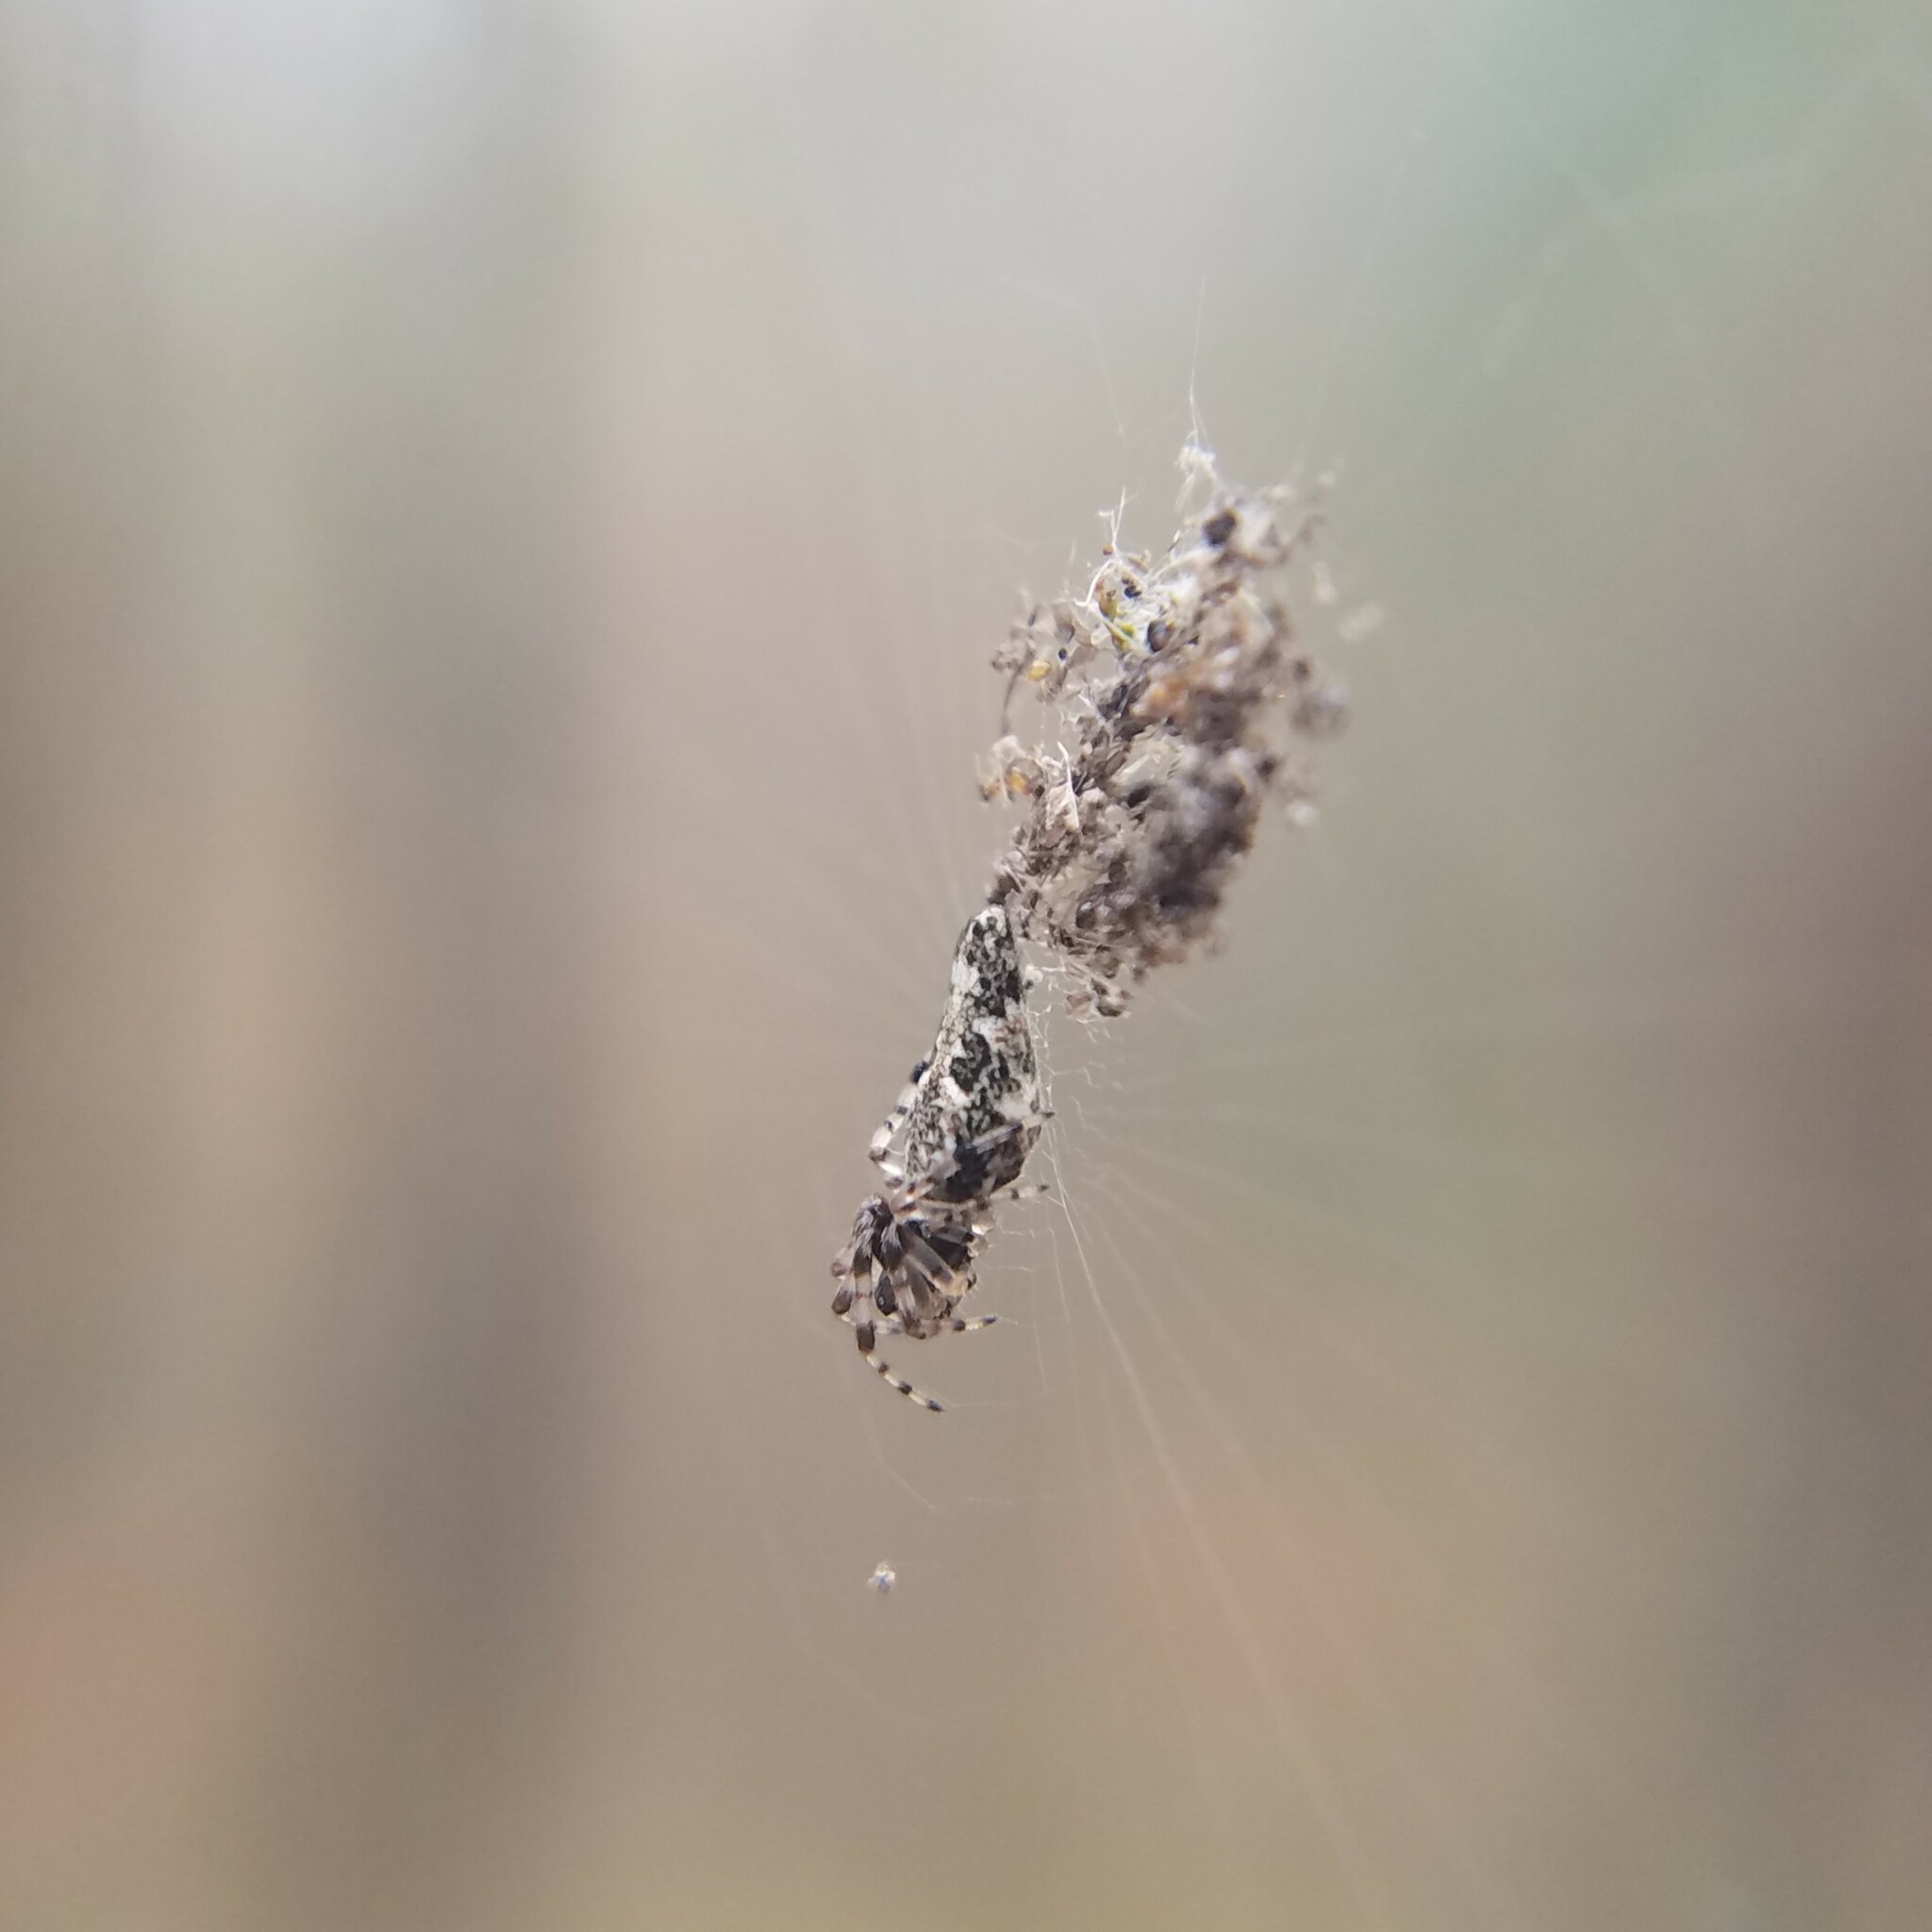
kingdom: Animalia
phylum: Arthropoda
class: Arachnida
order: Araneae
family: Araneidae
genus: Cyclosa
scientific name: Cyclosa caroli
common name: Orb weavers
